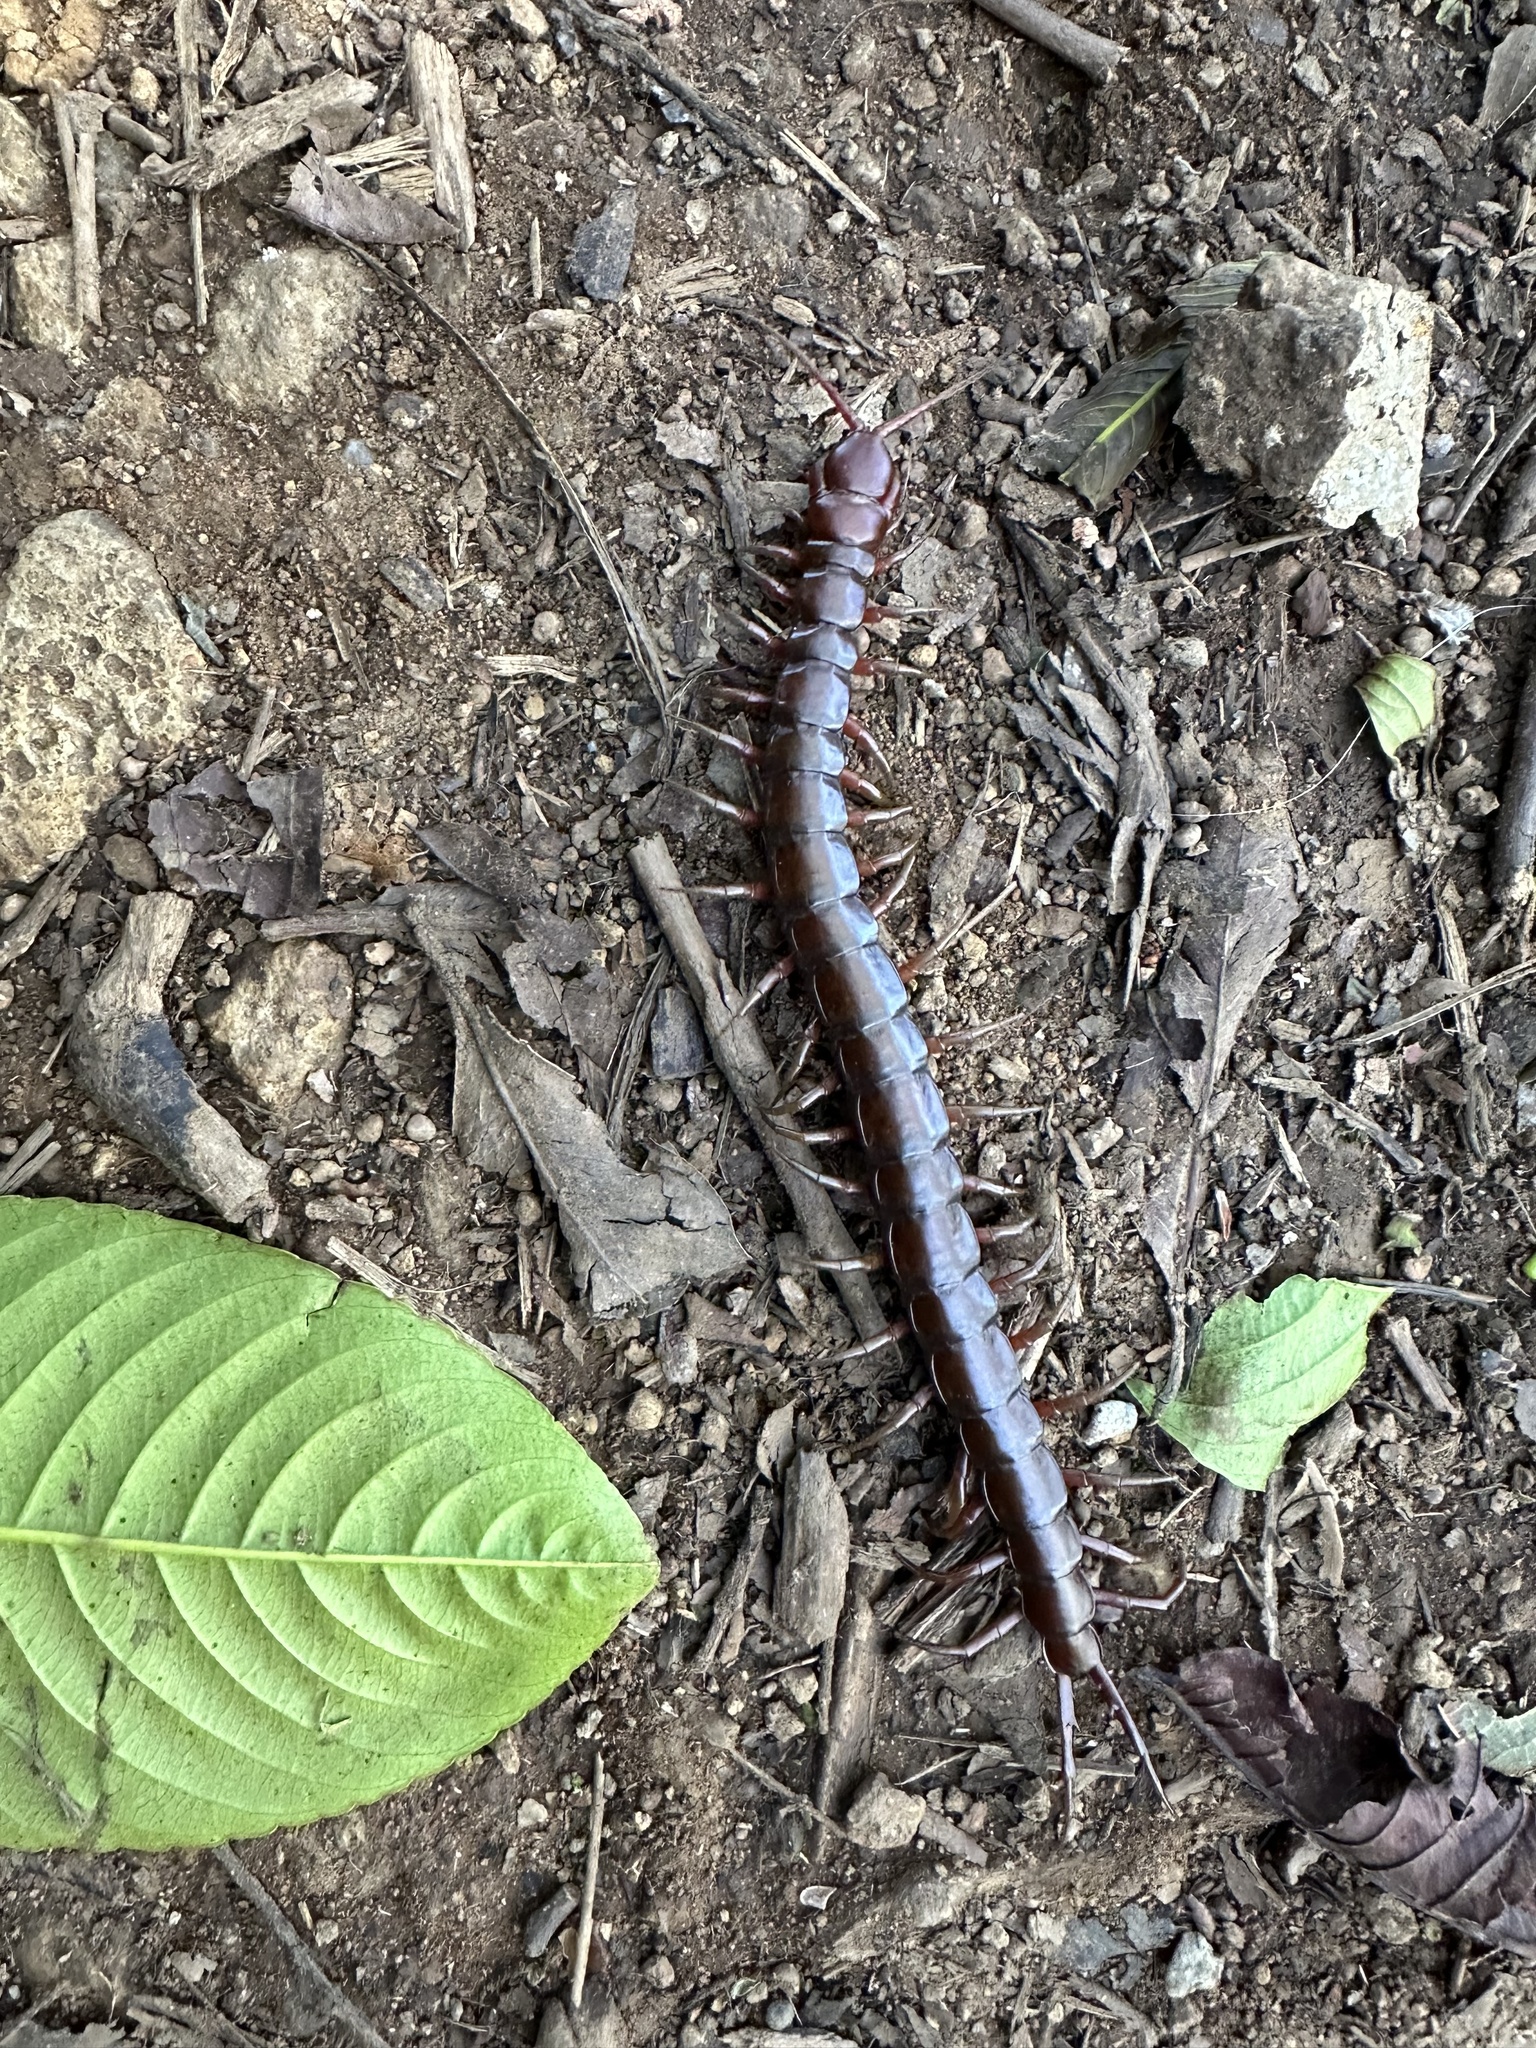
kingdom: Animalia
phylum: Arthropoda
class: Chilopoda
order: Scolopendromorpha
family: Scolopendridae
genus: Scolopendra
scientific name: Scolopendra subspinipes
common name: Centipede
